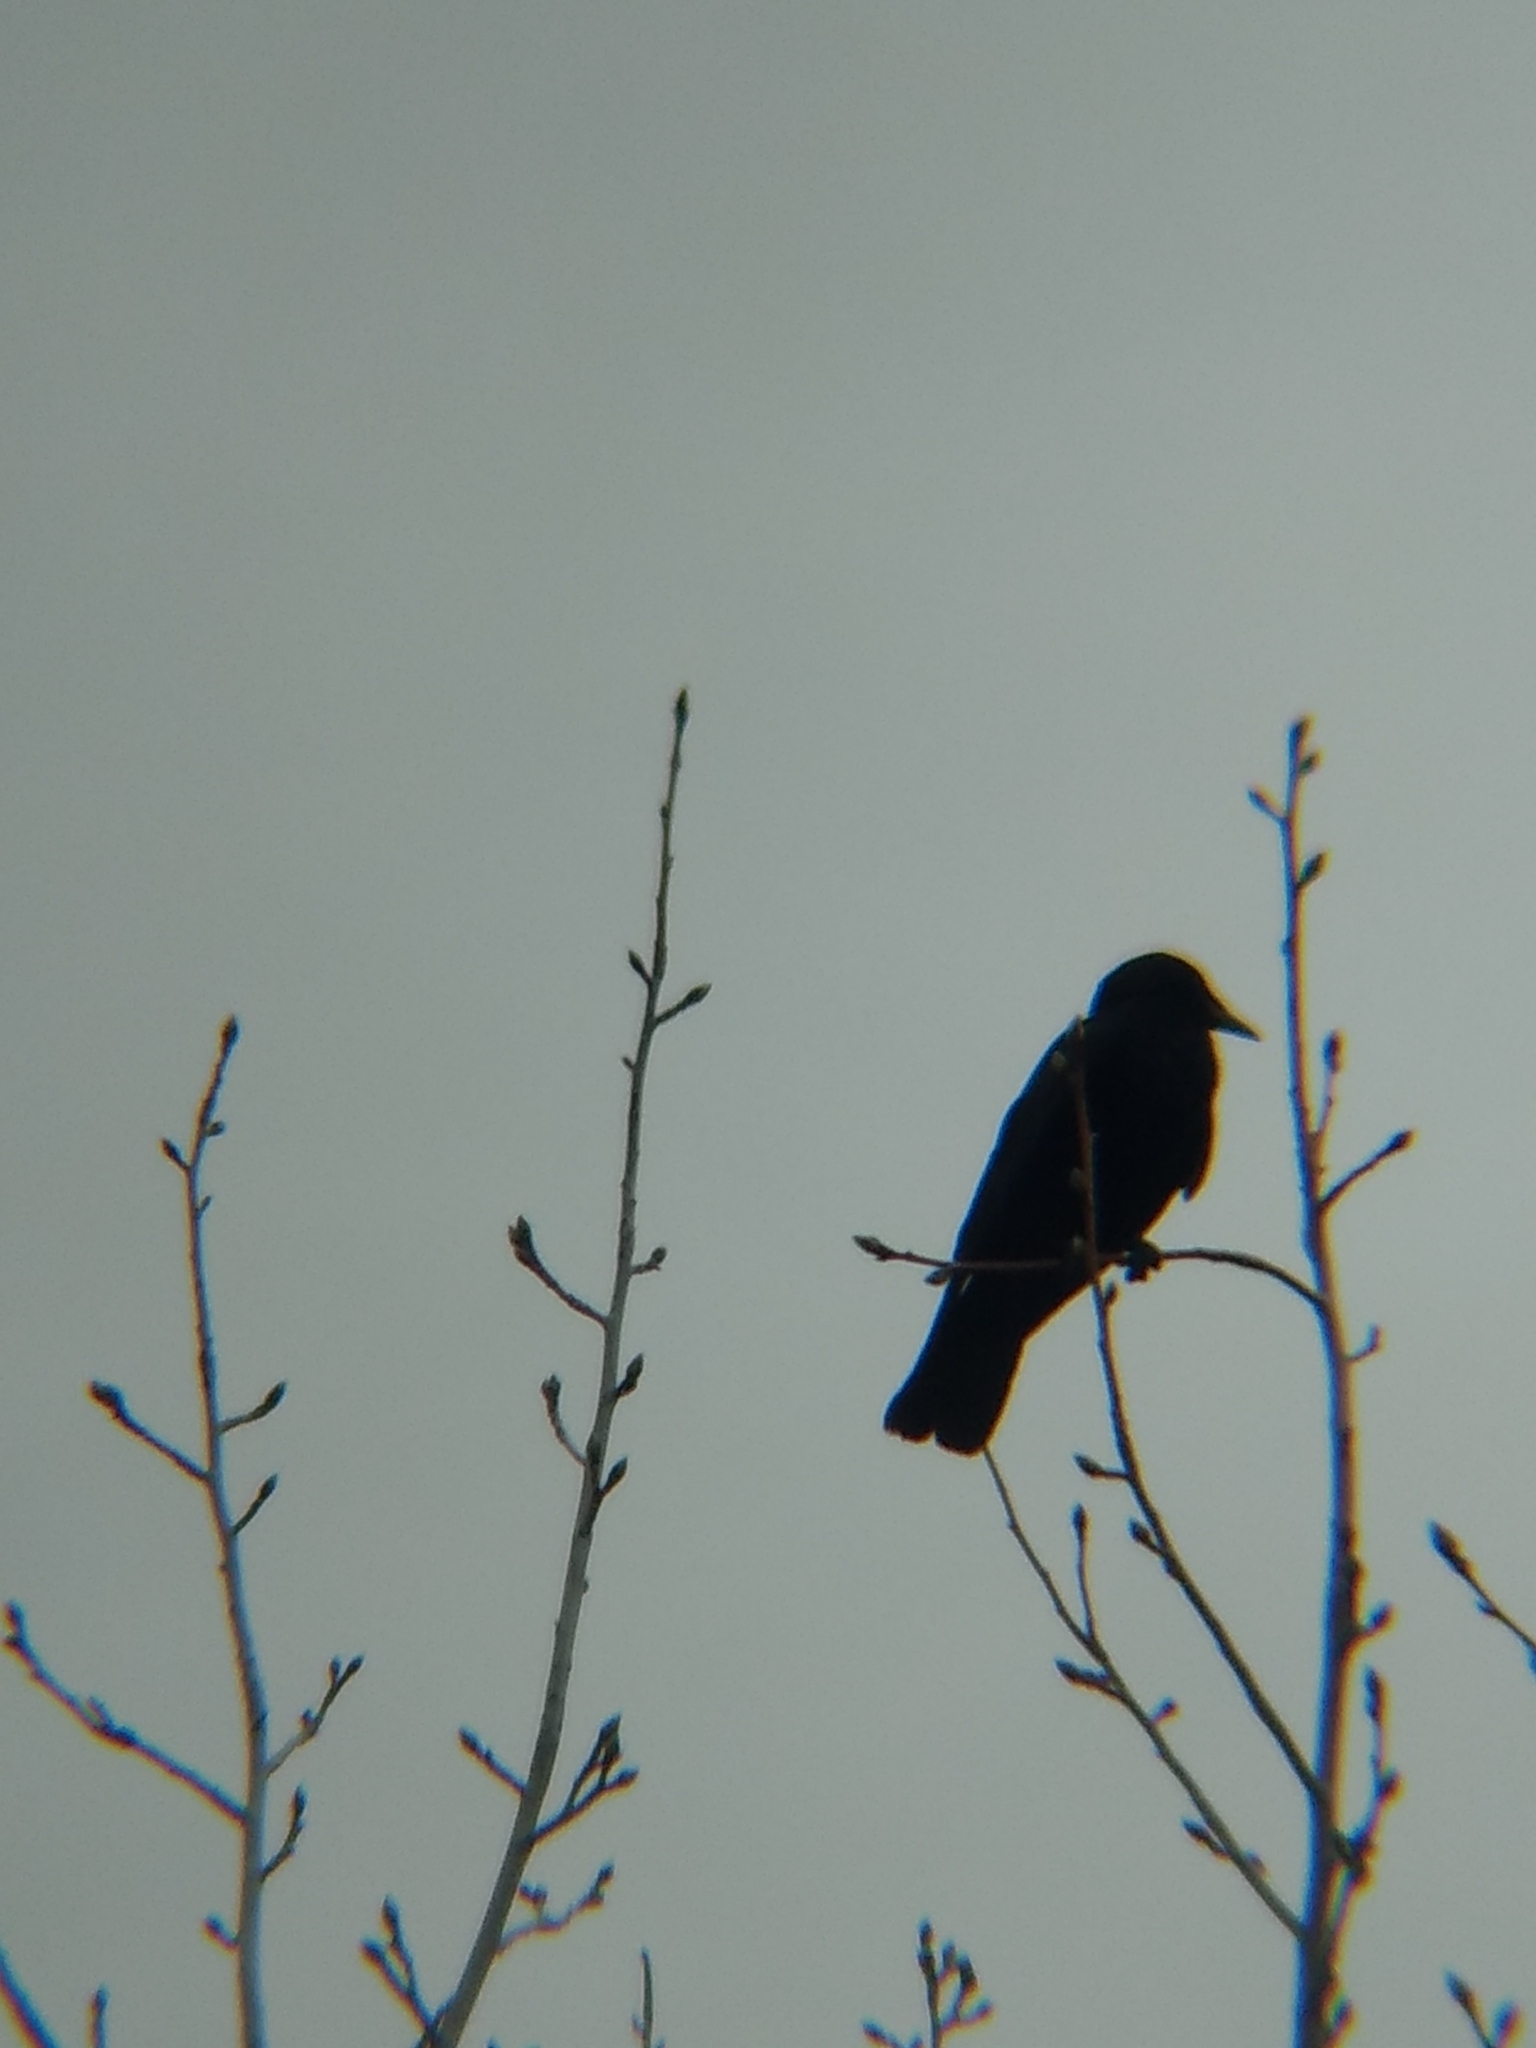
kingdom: Animalia
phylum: Chordata
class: Aves
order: Passeriformes
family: Corvidae
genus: Corvus
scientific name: Corvus brachyrhynchos
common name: American crow
